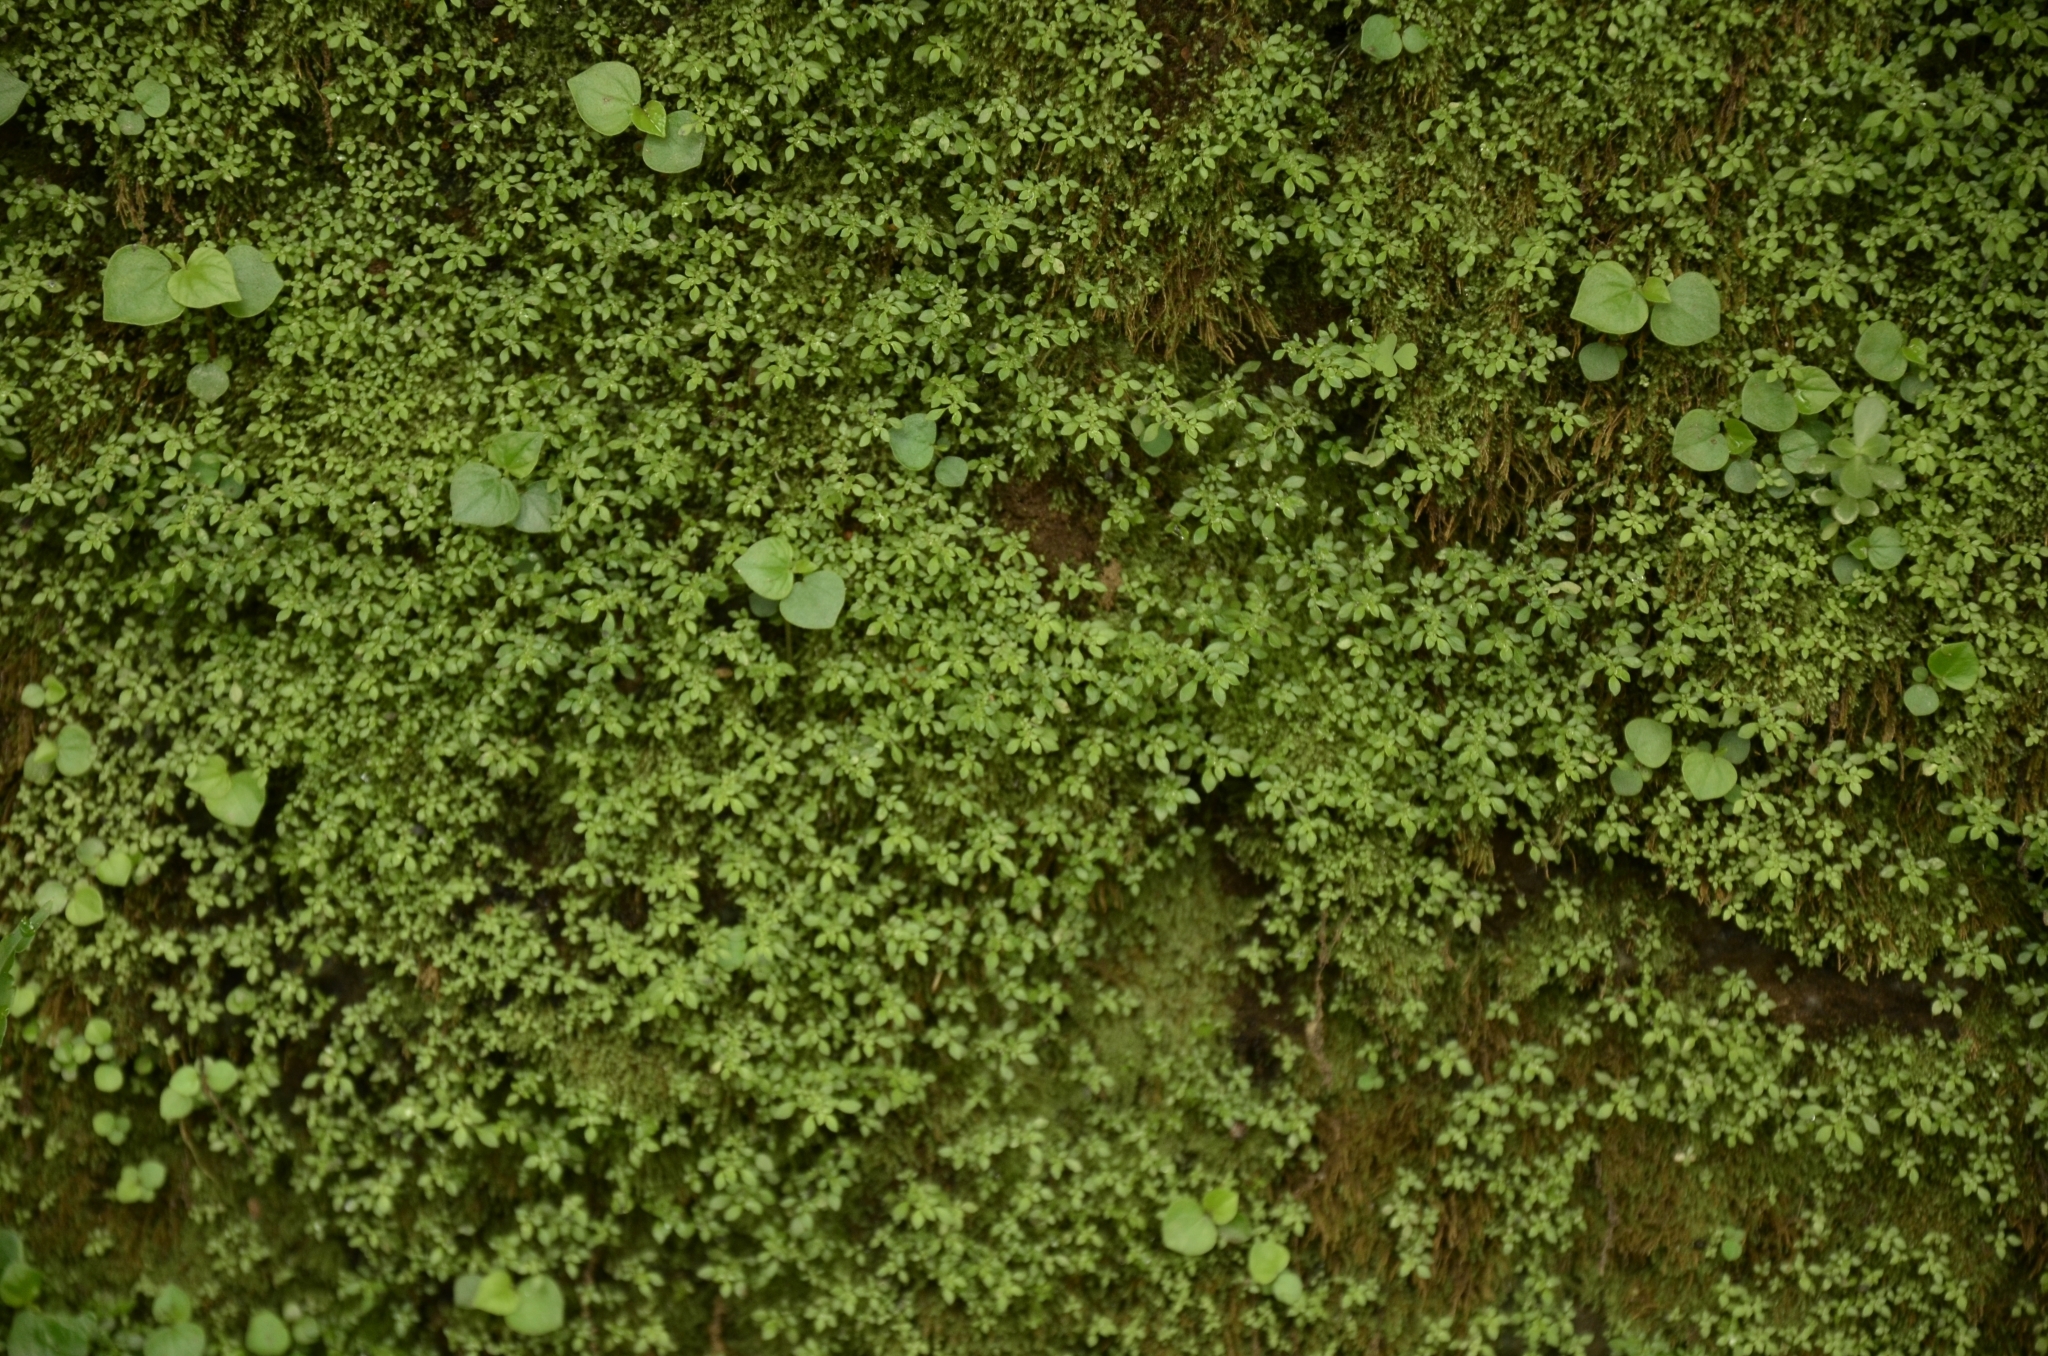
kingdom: Plantae
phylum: Tracheophyta
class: Magnoliopsida
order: Rosales
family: Urticaceae
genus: Pilea
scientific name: Pilea microphylla
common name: Artillery-plant
